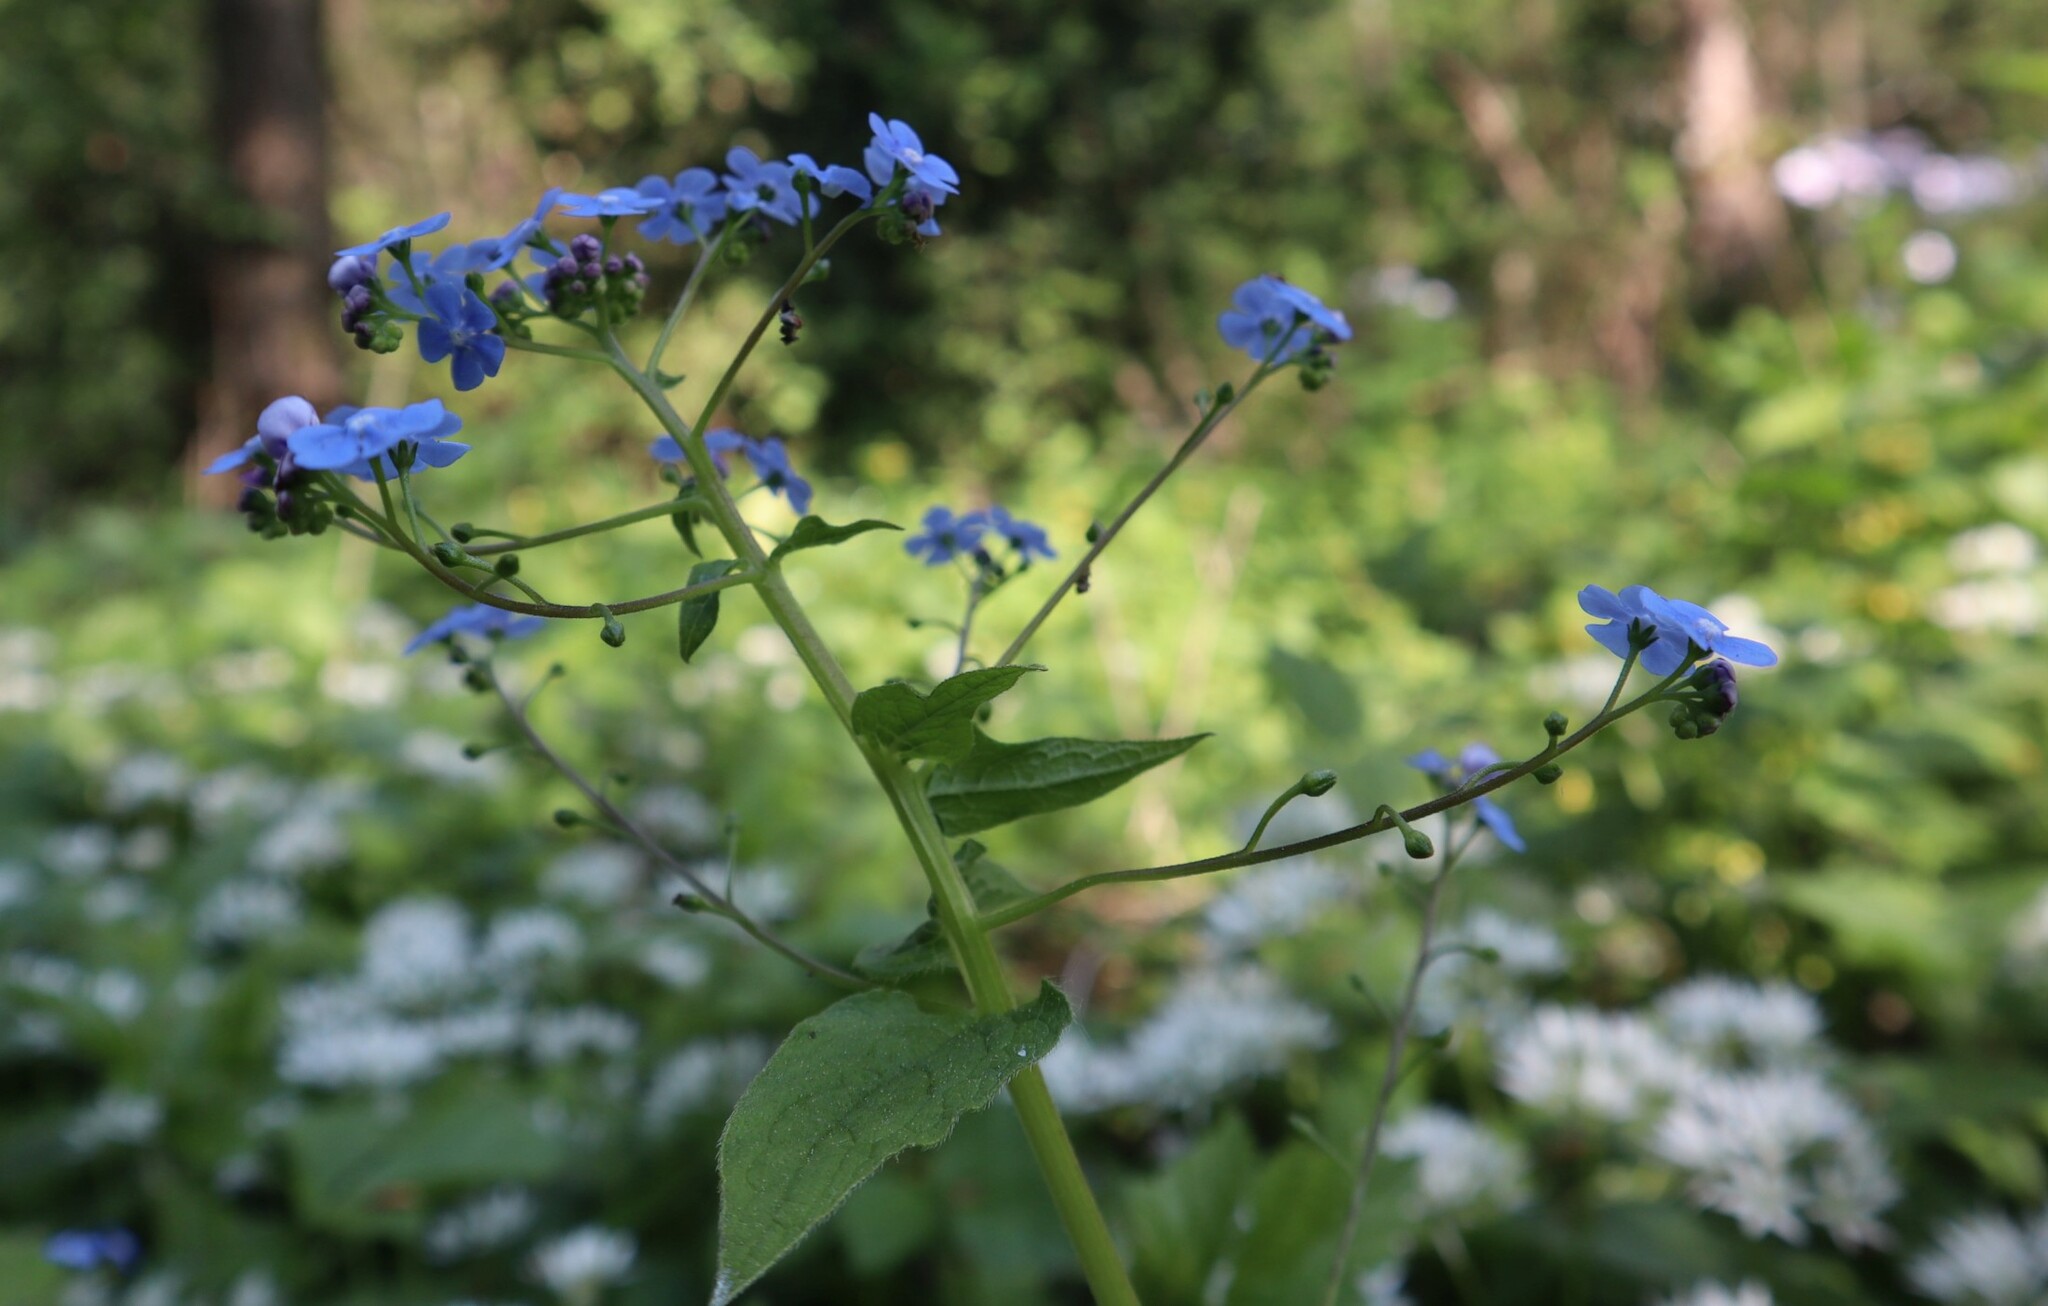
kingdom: Plantae
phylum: Tracheophyta
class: Magnoliopsida
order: Boraginales
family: Boraginaceae
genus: Brunnera
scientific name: Brunnera macrophylla
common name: Great forget-me-not
